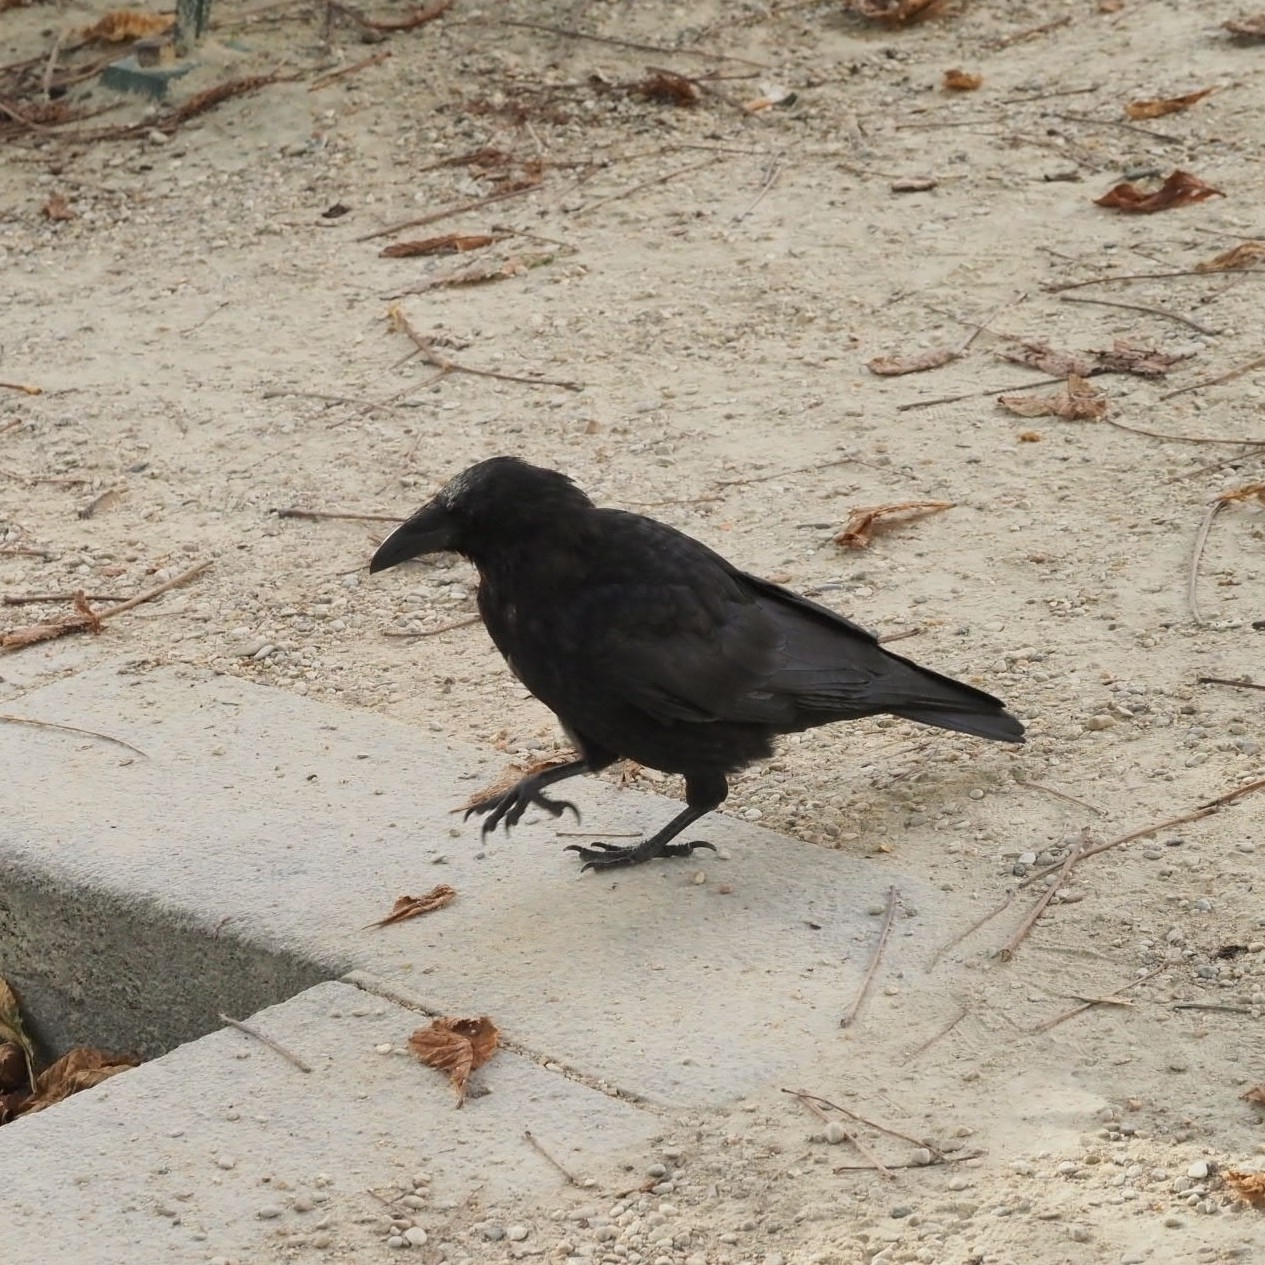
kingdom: Animalia
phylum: Chordata
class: Aves
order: Passeriformes
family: Corvidae
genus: Corvus
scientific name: Corvus corone
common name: Carrion crow
